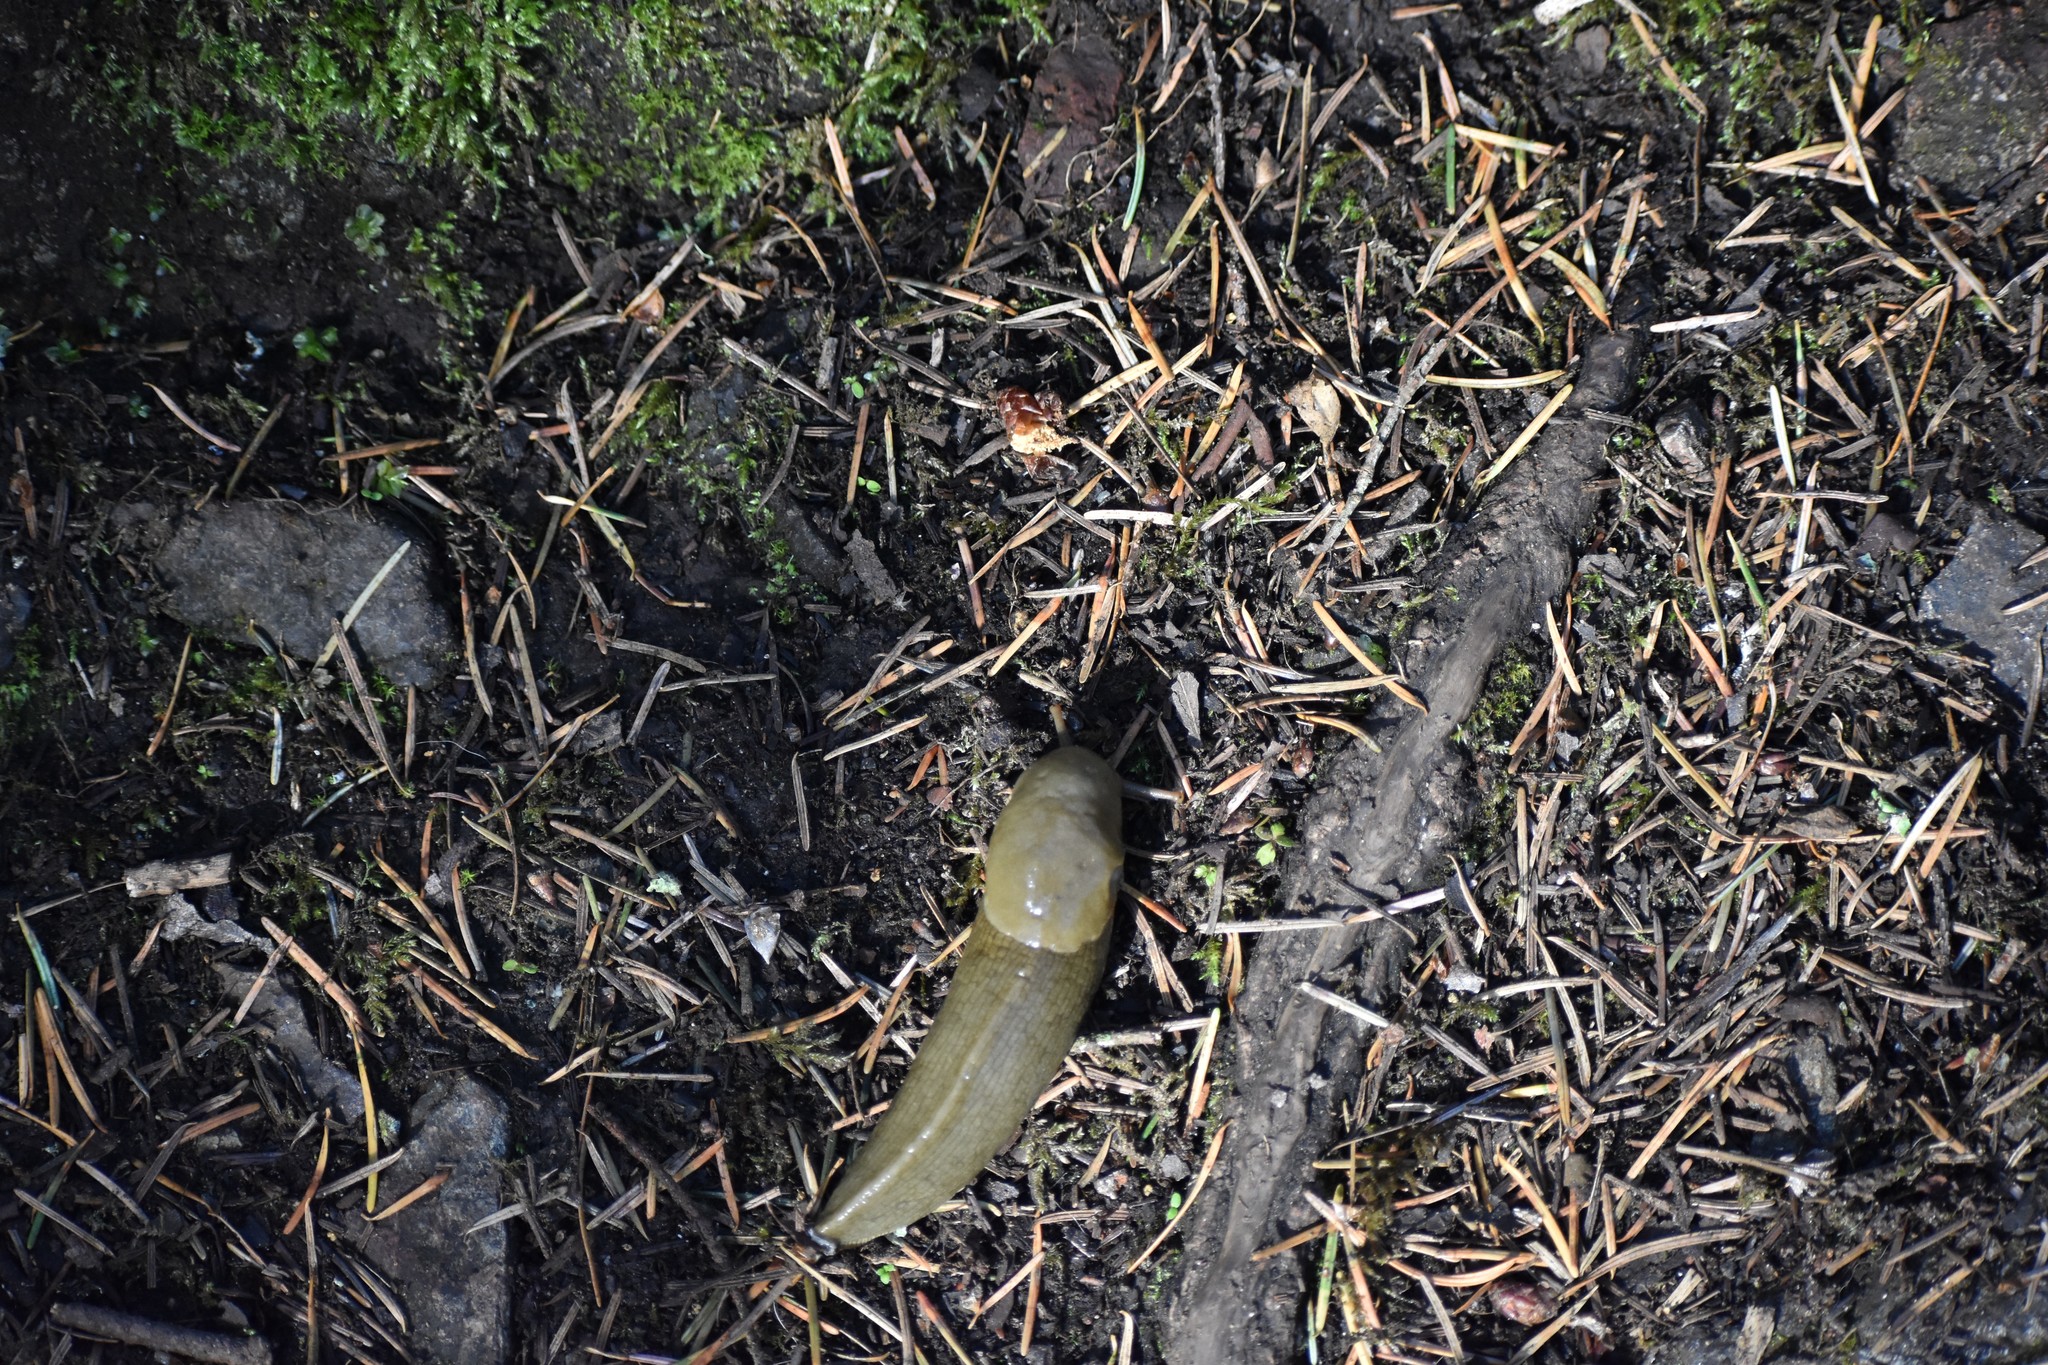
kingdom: Animalia
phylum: Mollusca
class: Gastropoda
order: Stylommatophora
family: Ariolimacidae
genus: Ariolimax
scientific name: Ariolimax columbianus
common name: Pacific banana slug
